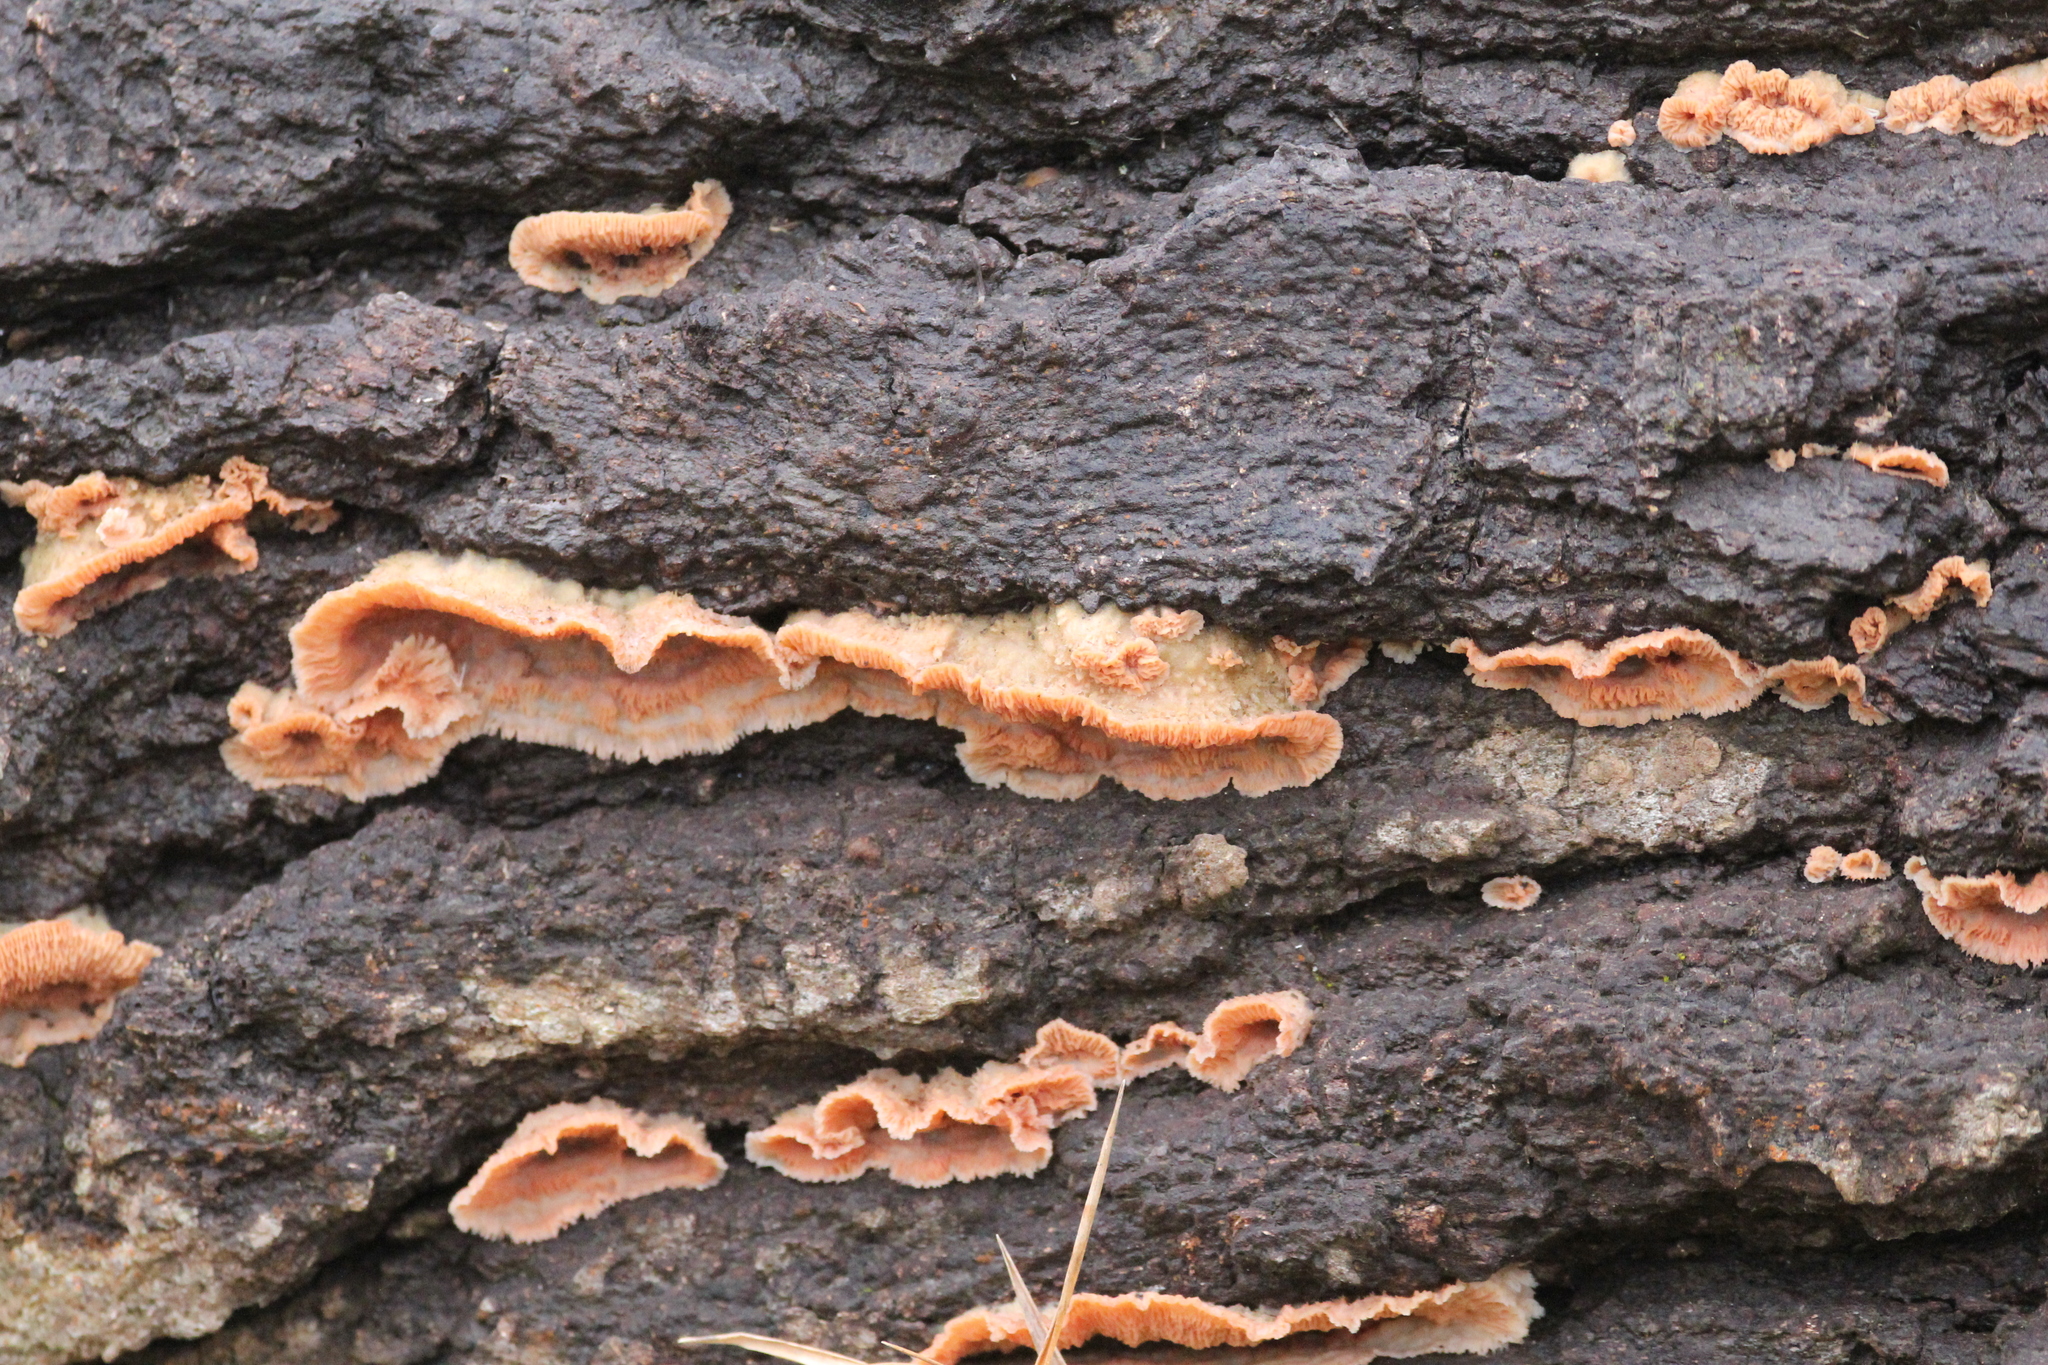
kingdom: Fungi
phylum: Basidiomycota
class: Agaricomycetes
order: Polyporales
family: Meruliaceae
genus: Phlebia
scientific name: Phlebia tremellosa
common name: Jelly rot
